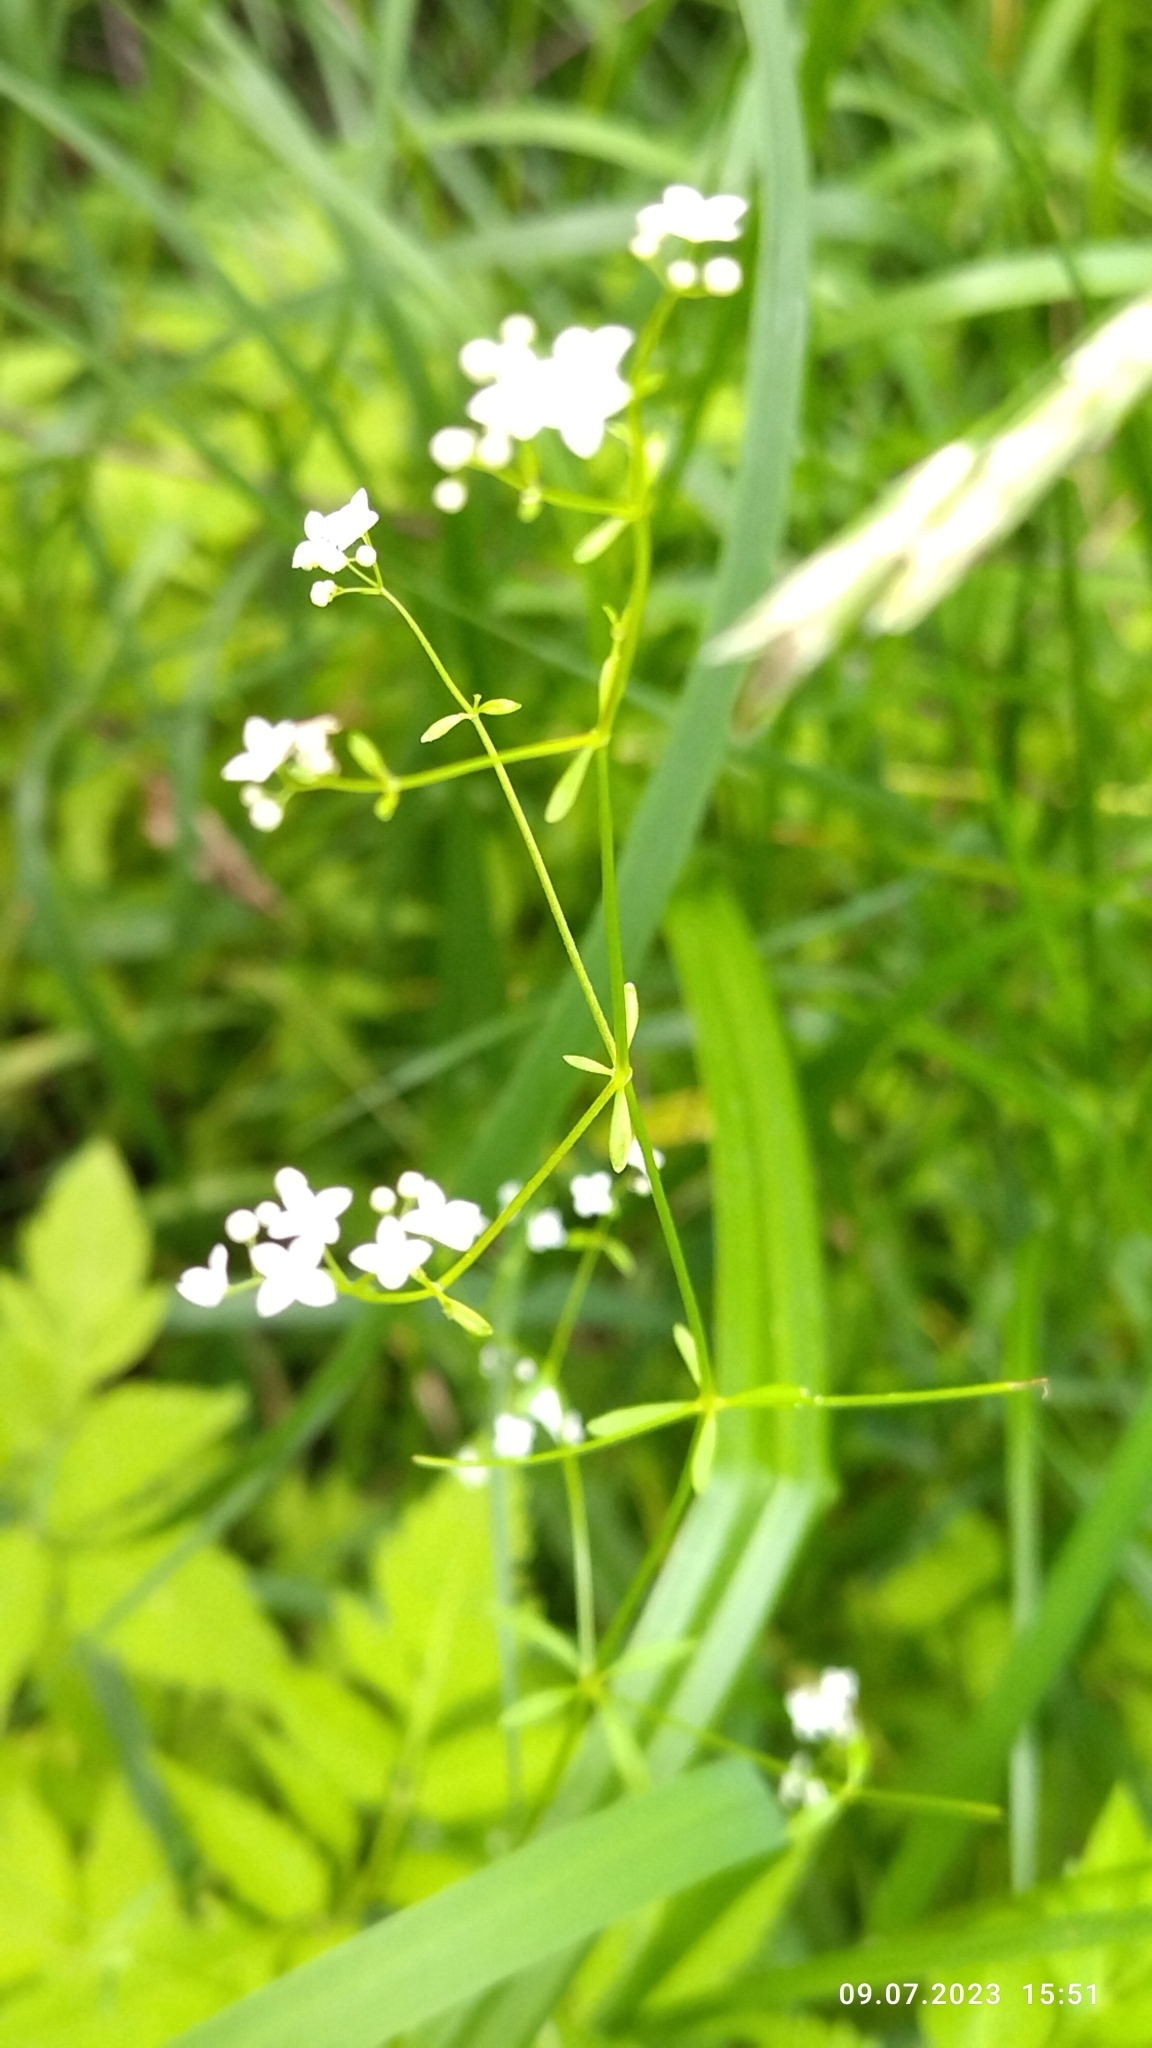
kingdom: Plantae
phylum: Tracheophyta
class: Magnoliopsida
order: Gentianales
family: Rubiaceae
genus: Galium
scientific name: Galium palustre
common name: Common marsh-bedstraw
